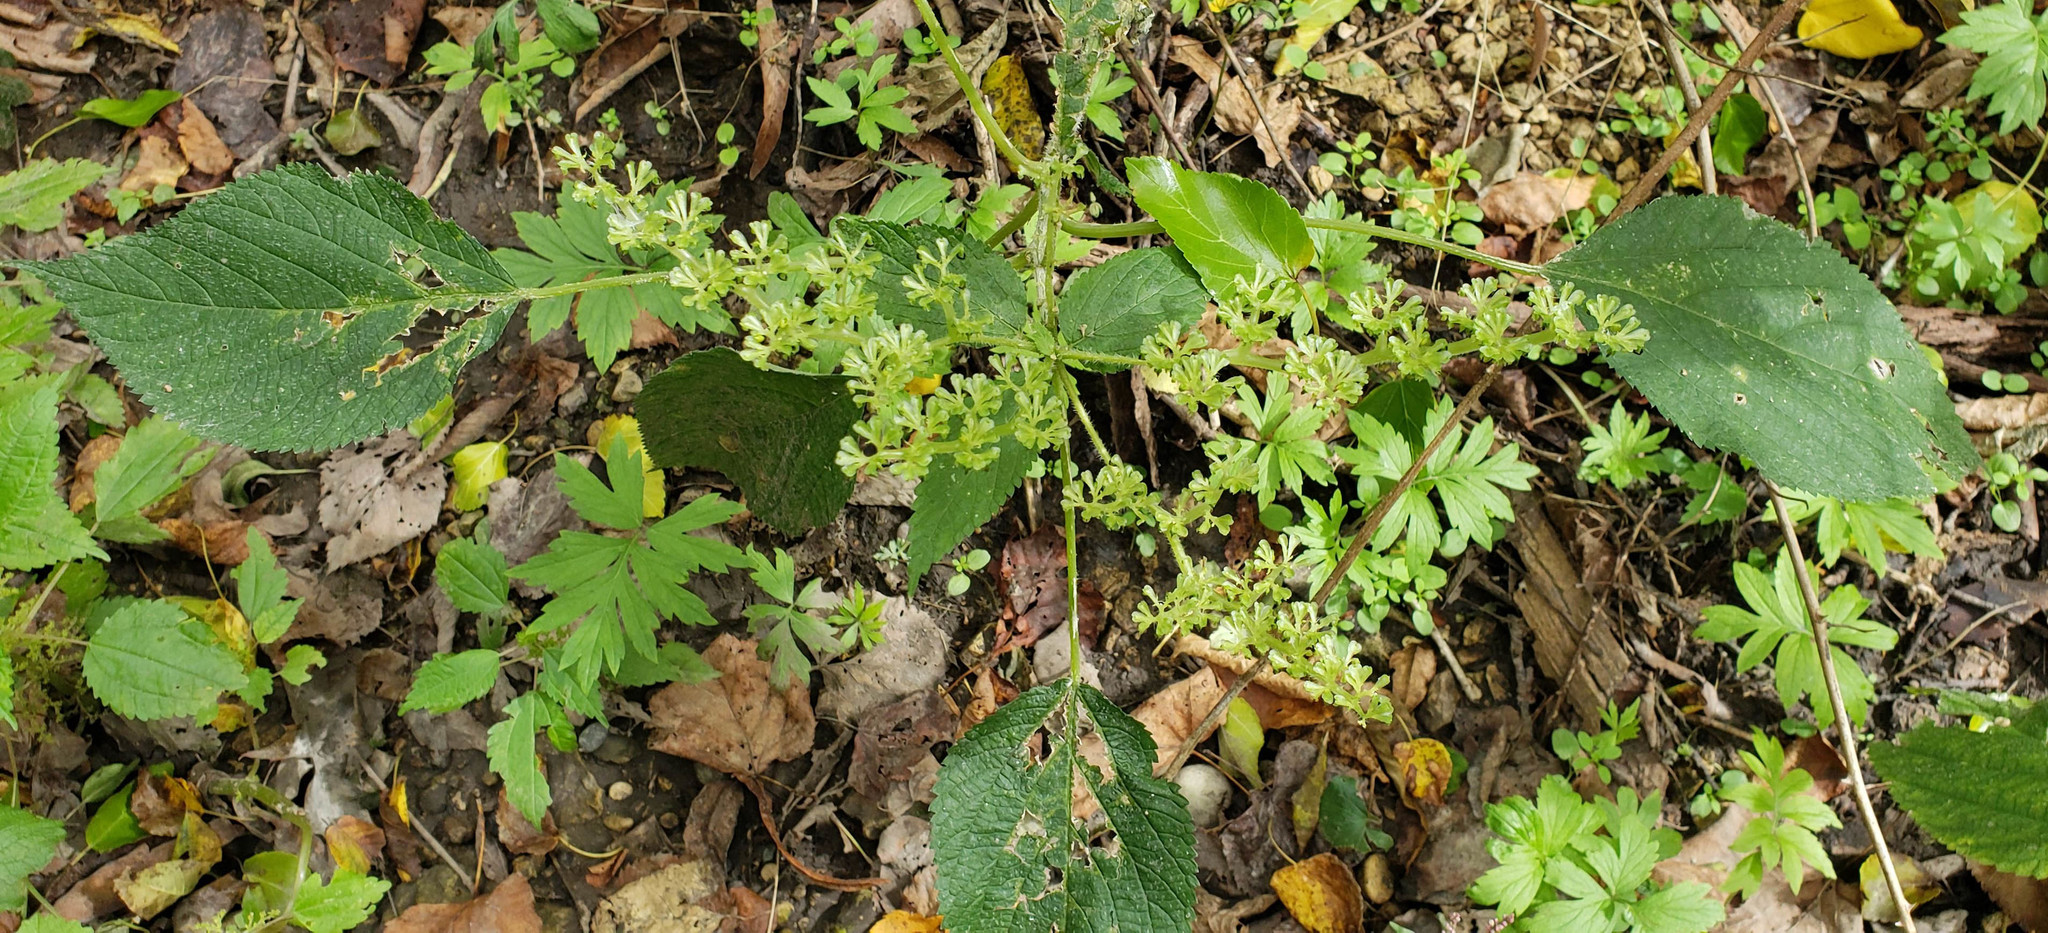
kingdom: Plantae
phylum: Tracheophyta
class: Magnoliopsida
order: Rosales
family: Urticaceae
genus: Laportea
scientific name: Laportea canadensis
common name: Canada nettle
